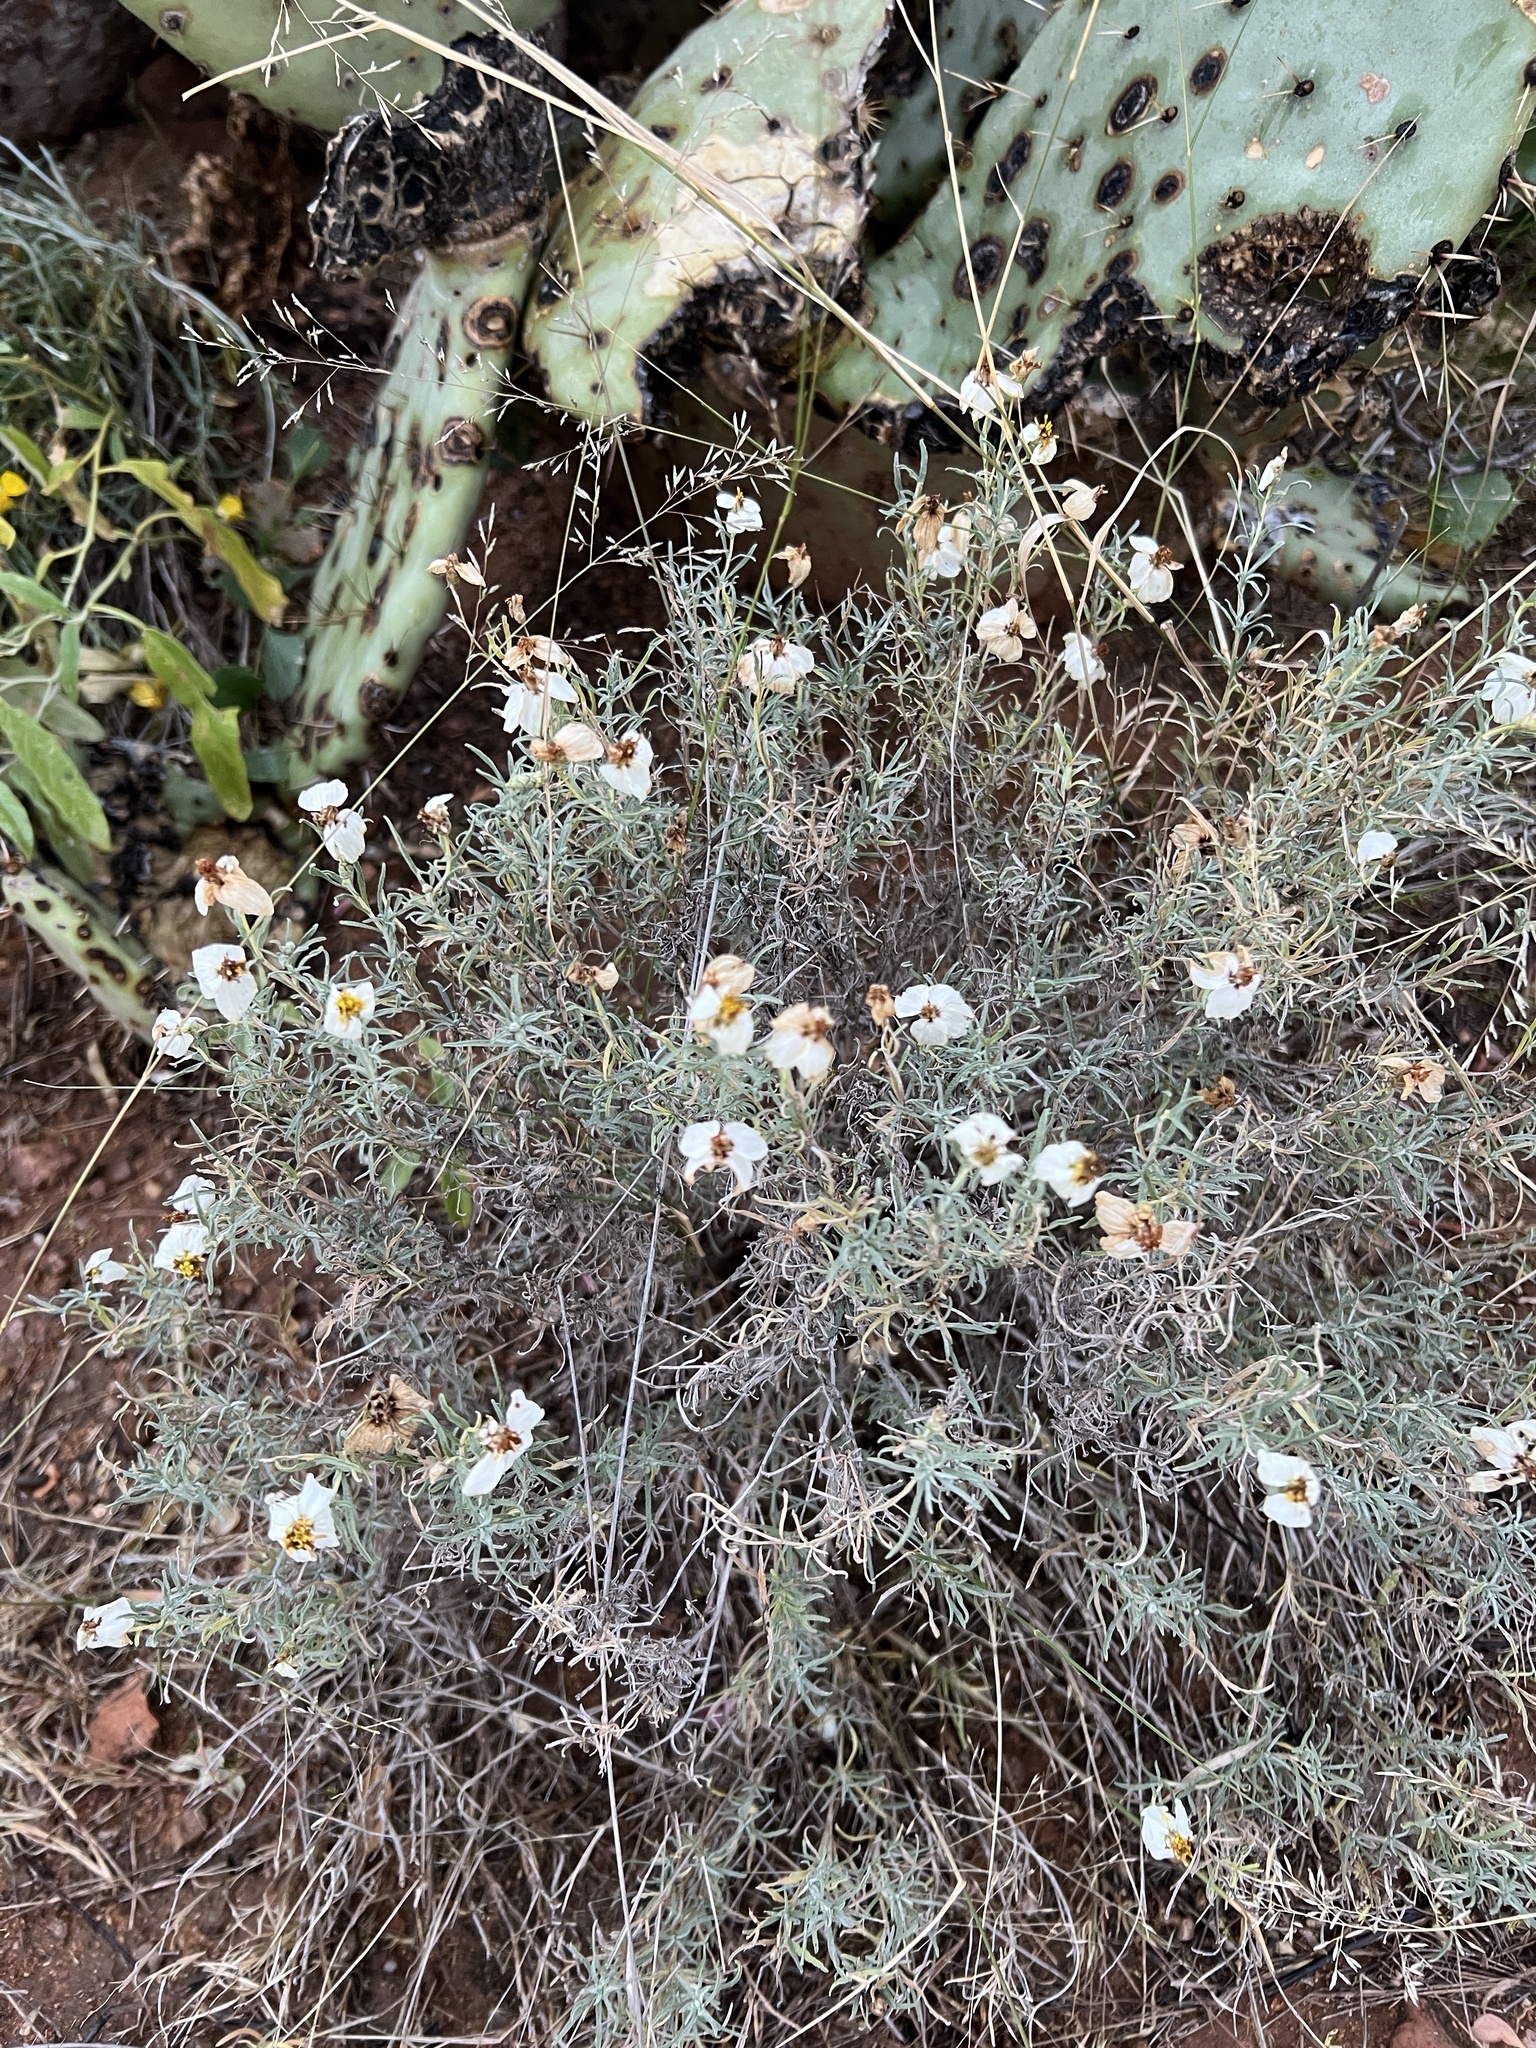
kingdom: Plantae
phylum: Tracheophyta
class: Magnoliopsida
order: Asterales
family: Asteraceae
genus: Zinnia
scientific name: Zinnia acerosa
